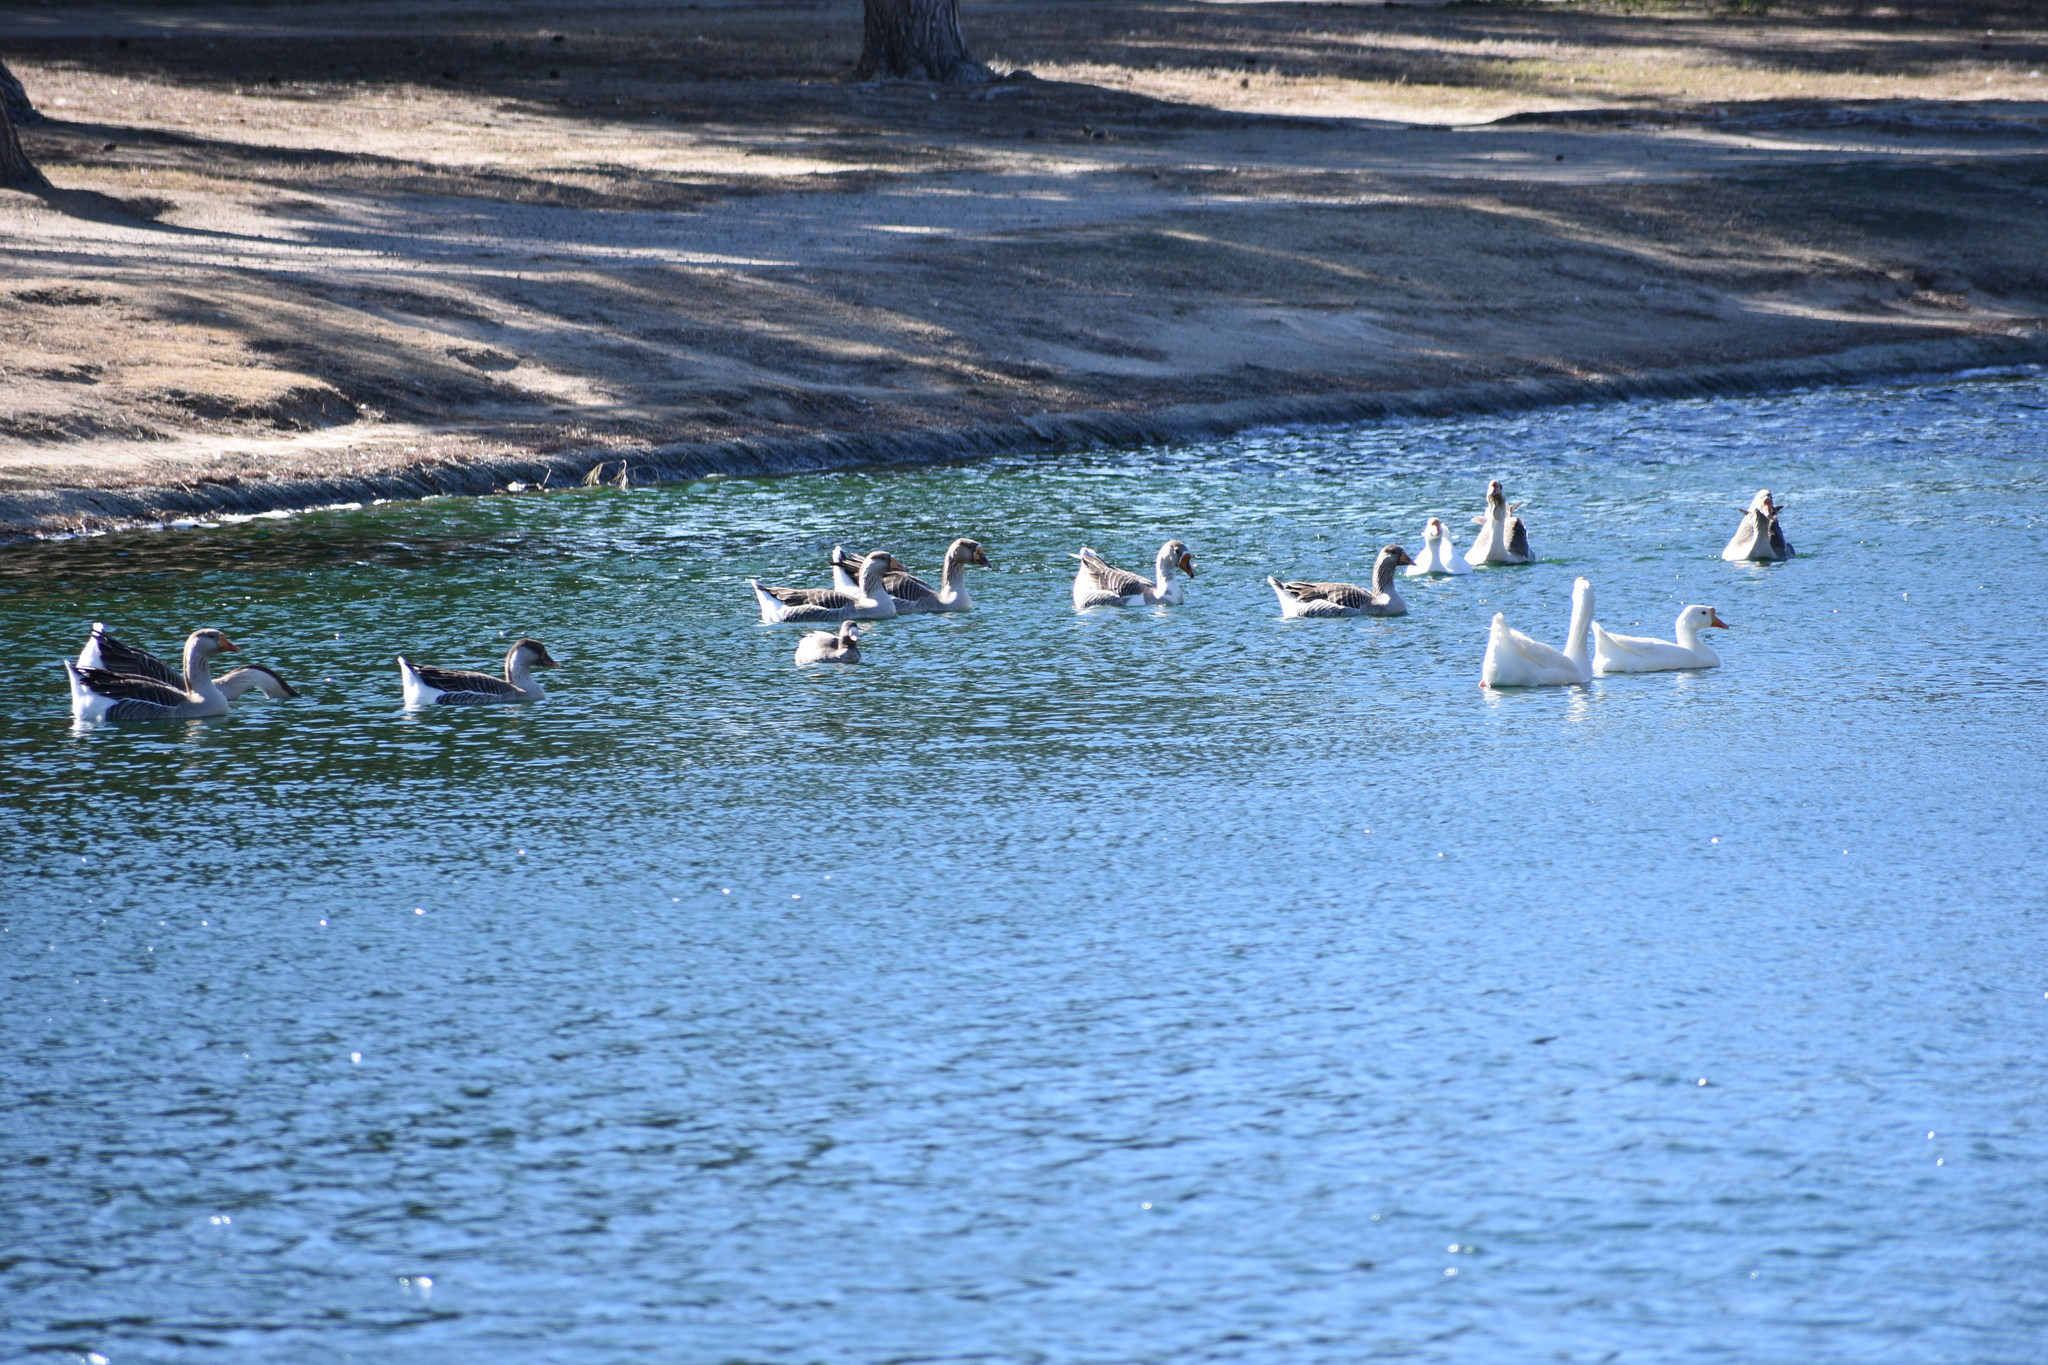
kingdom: Animalia
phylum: Chordata
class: Aves
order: Anseriformes
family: Anatidae
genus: Anser
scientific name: Anser
